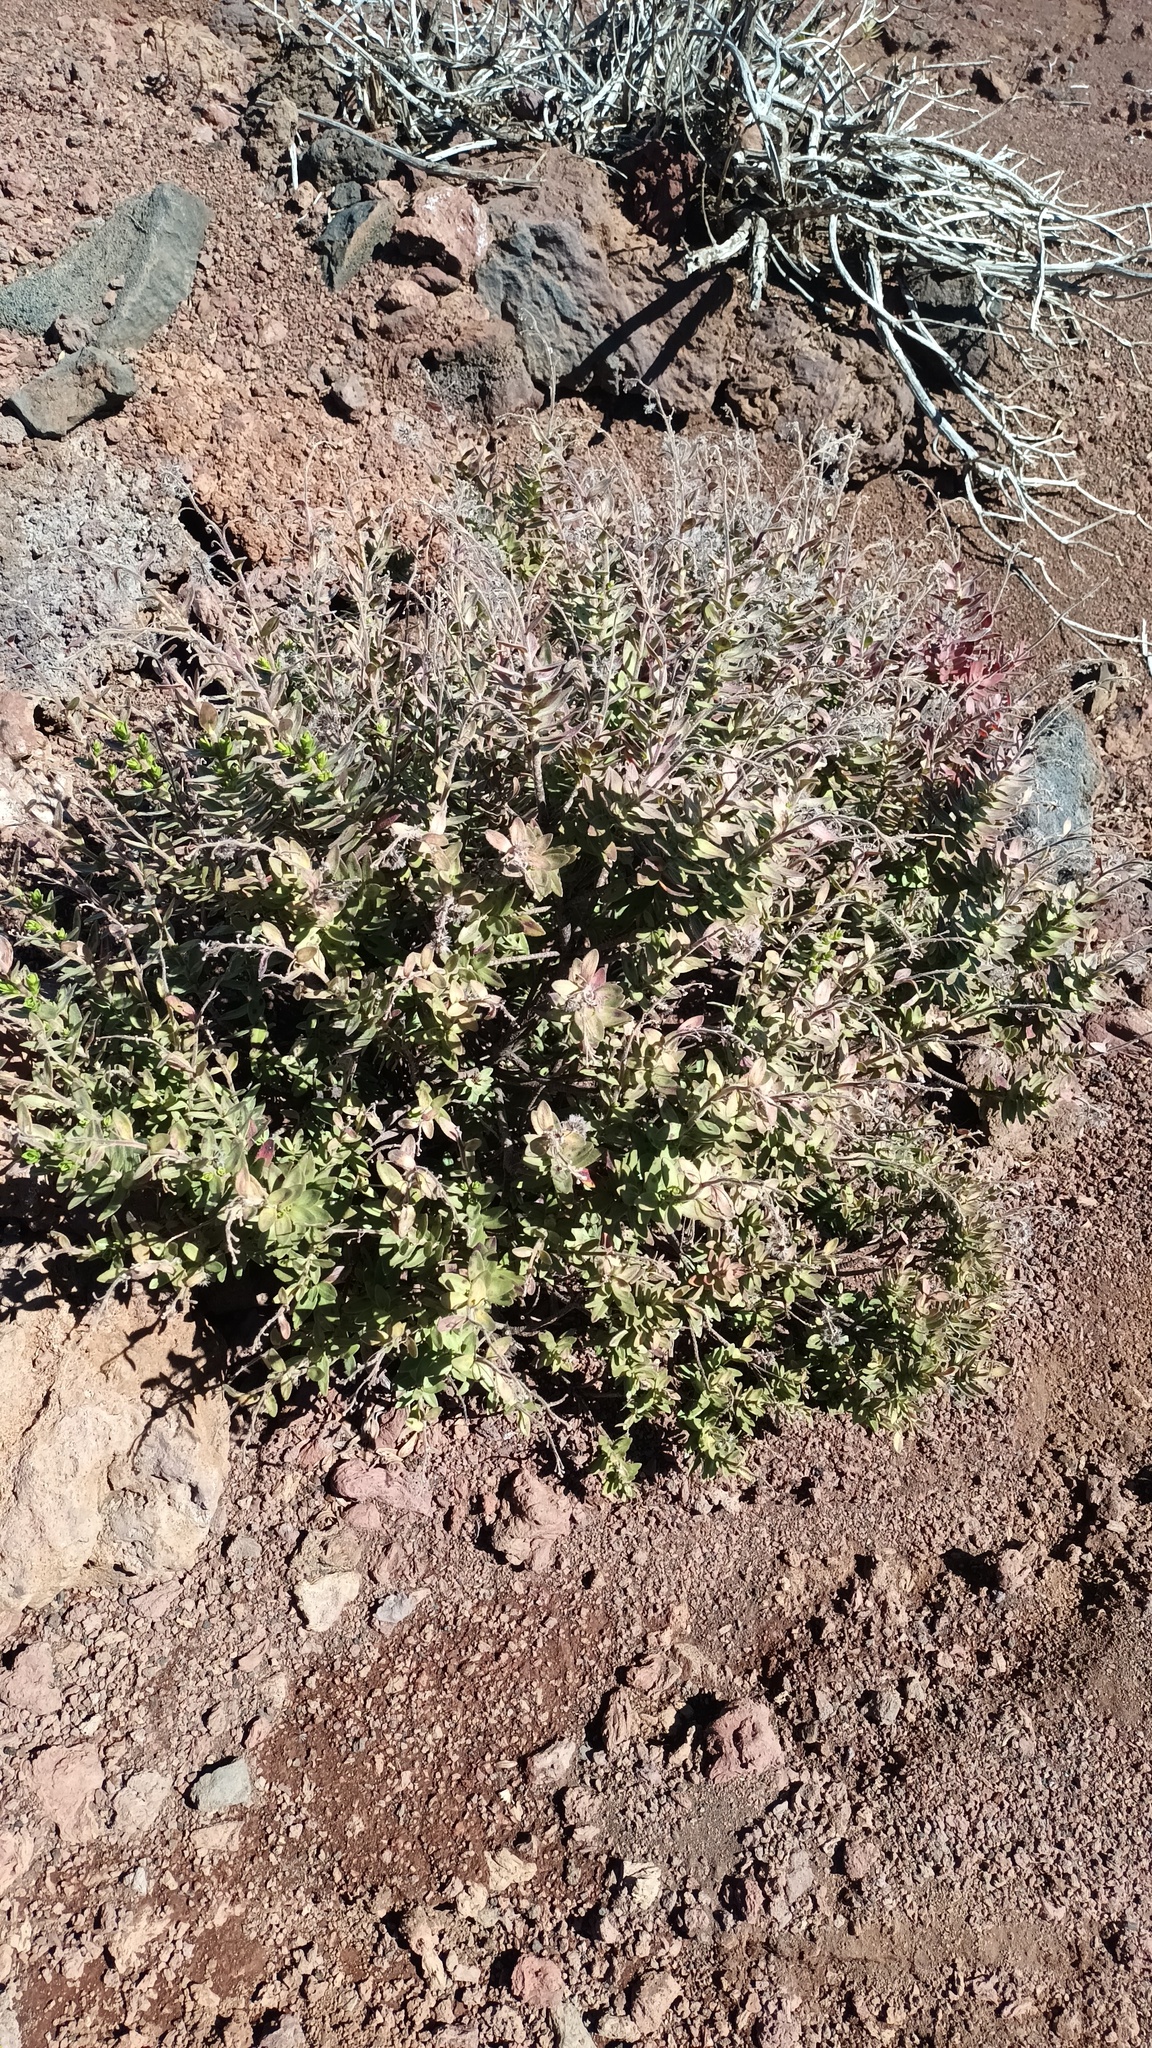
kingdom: Plantae
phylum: Tracheophyta
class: Magnoliopsida
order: Asterales
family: Asteraceae
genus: Dubautia
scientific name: Dubautia menziesii
